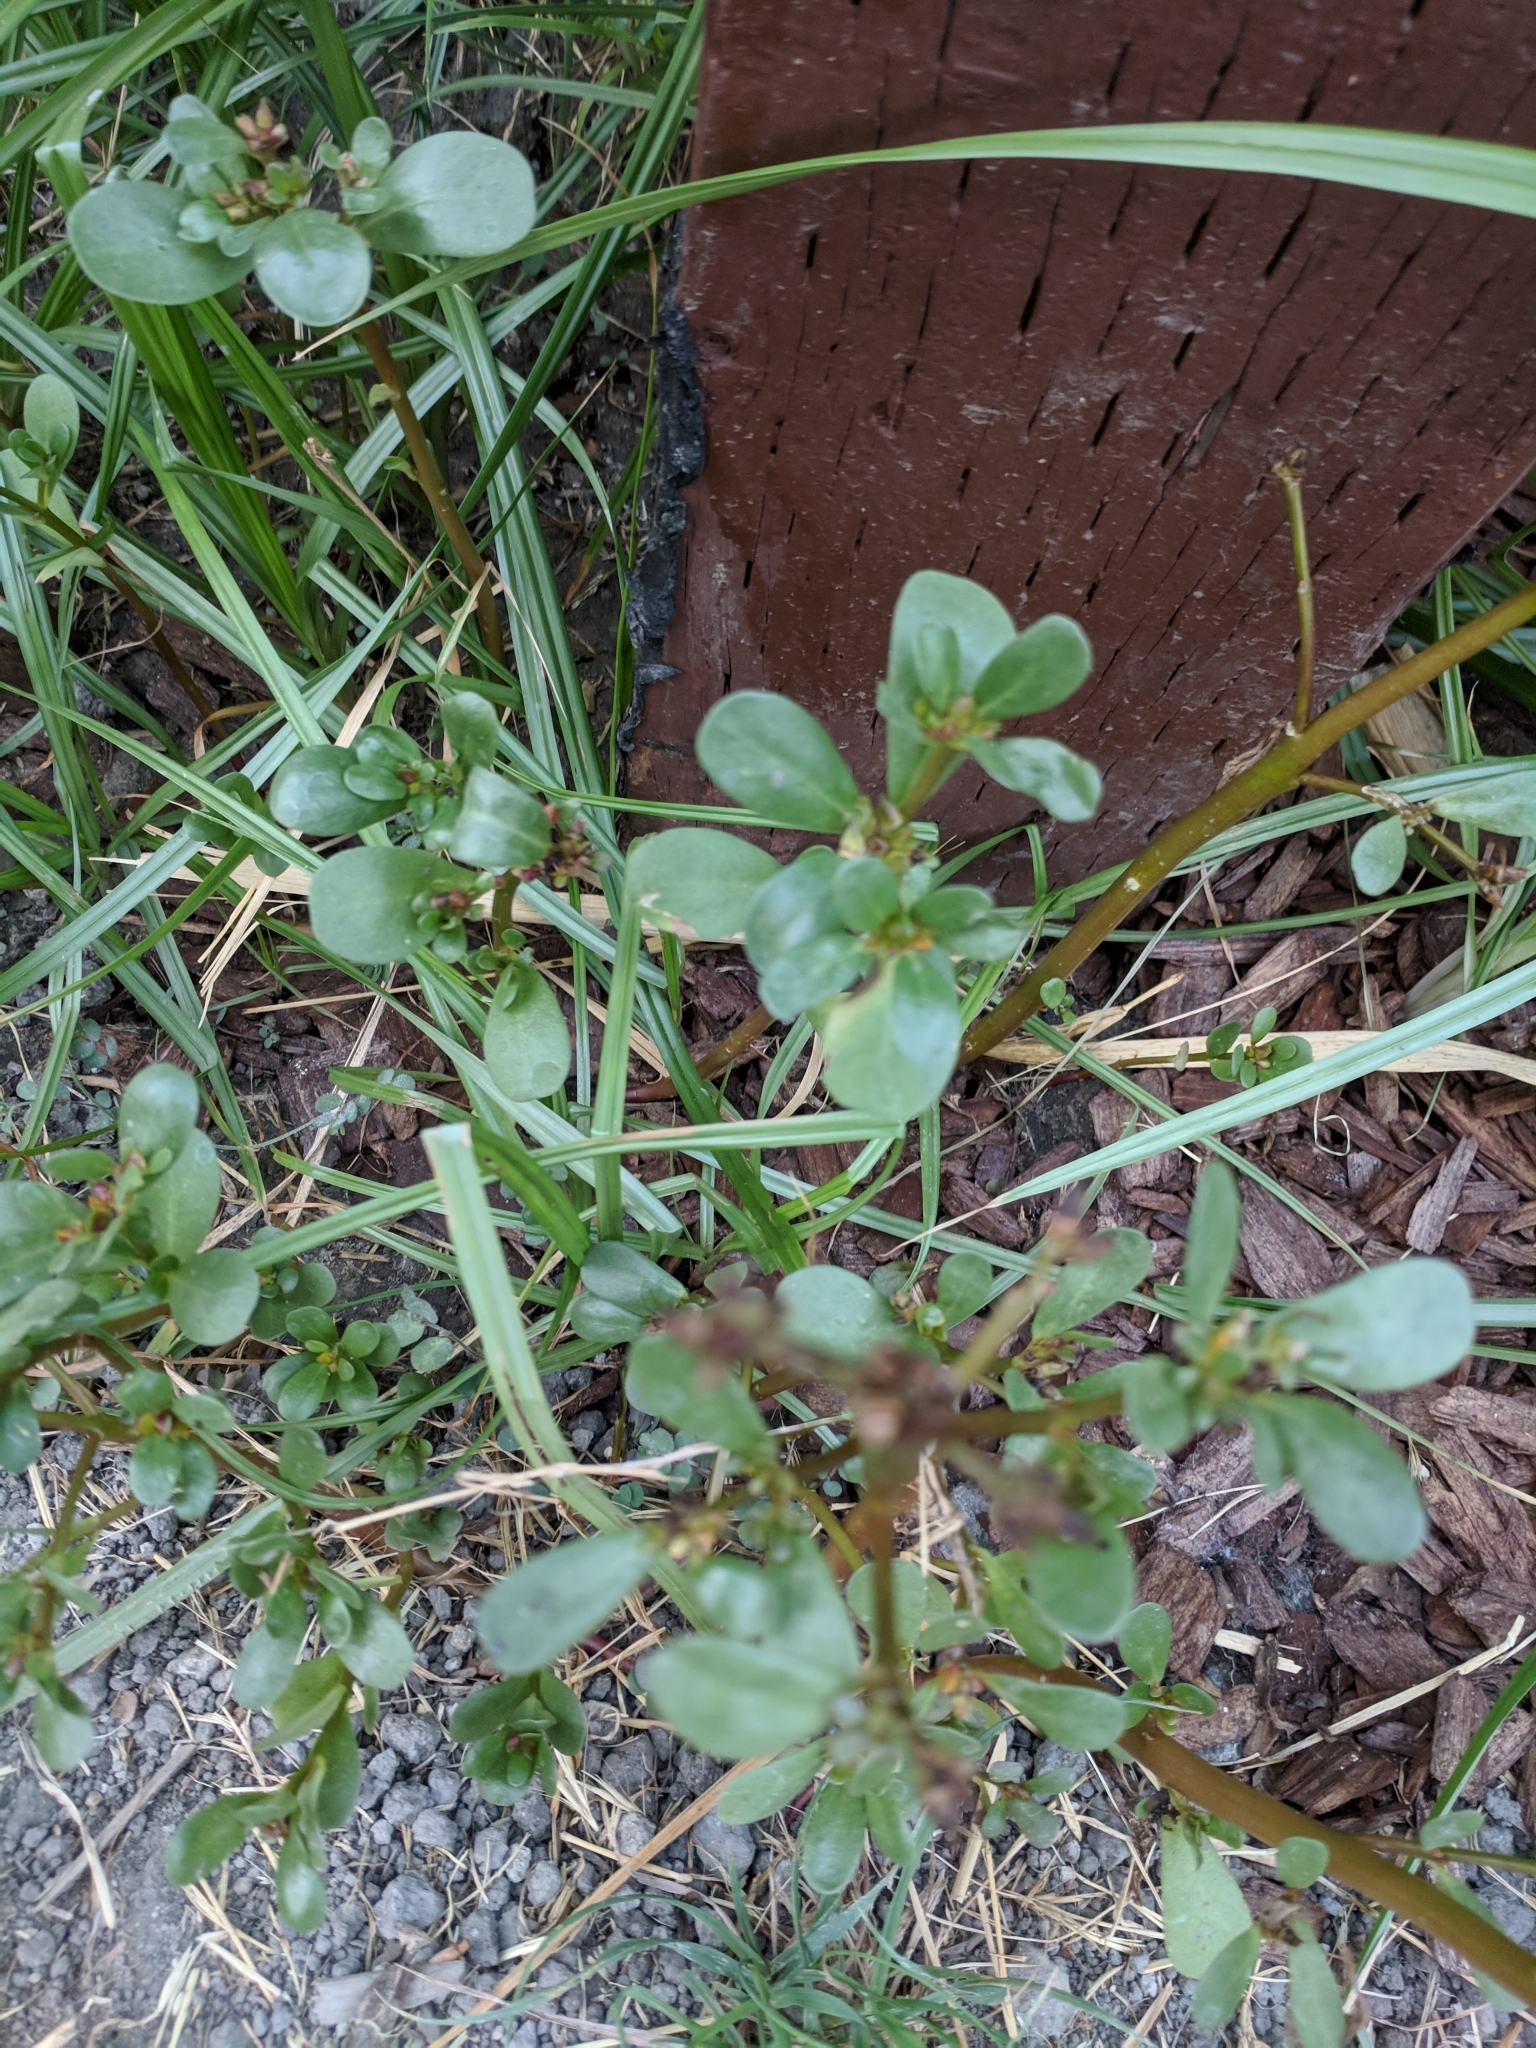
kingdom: Plantae
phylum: Tracheophyta
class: Magnoliopsida
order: Caryophyllales
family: Portulacaceae
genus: Portulaca
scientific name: Portulaca oleracea
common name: Common purslane
